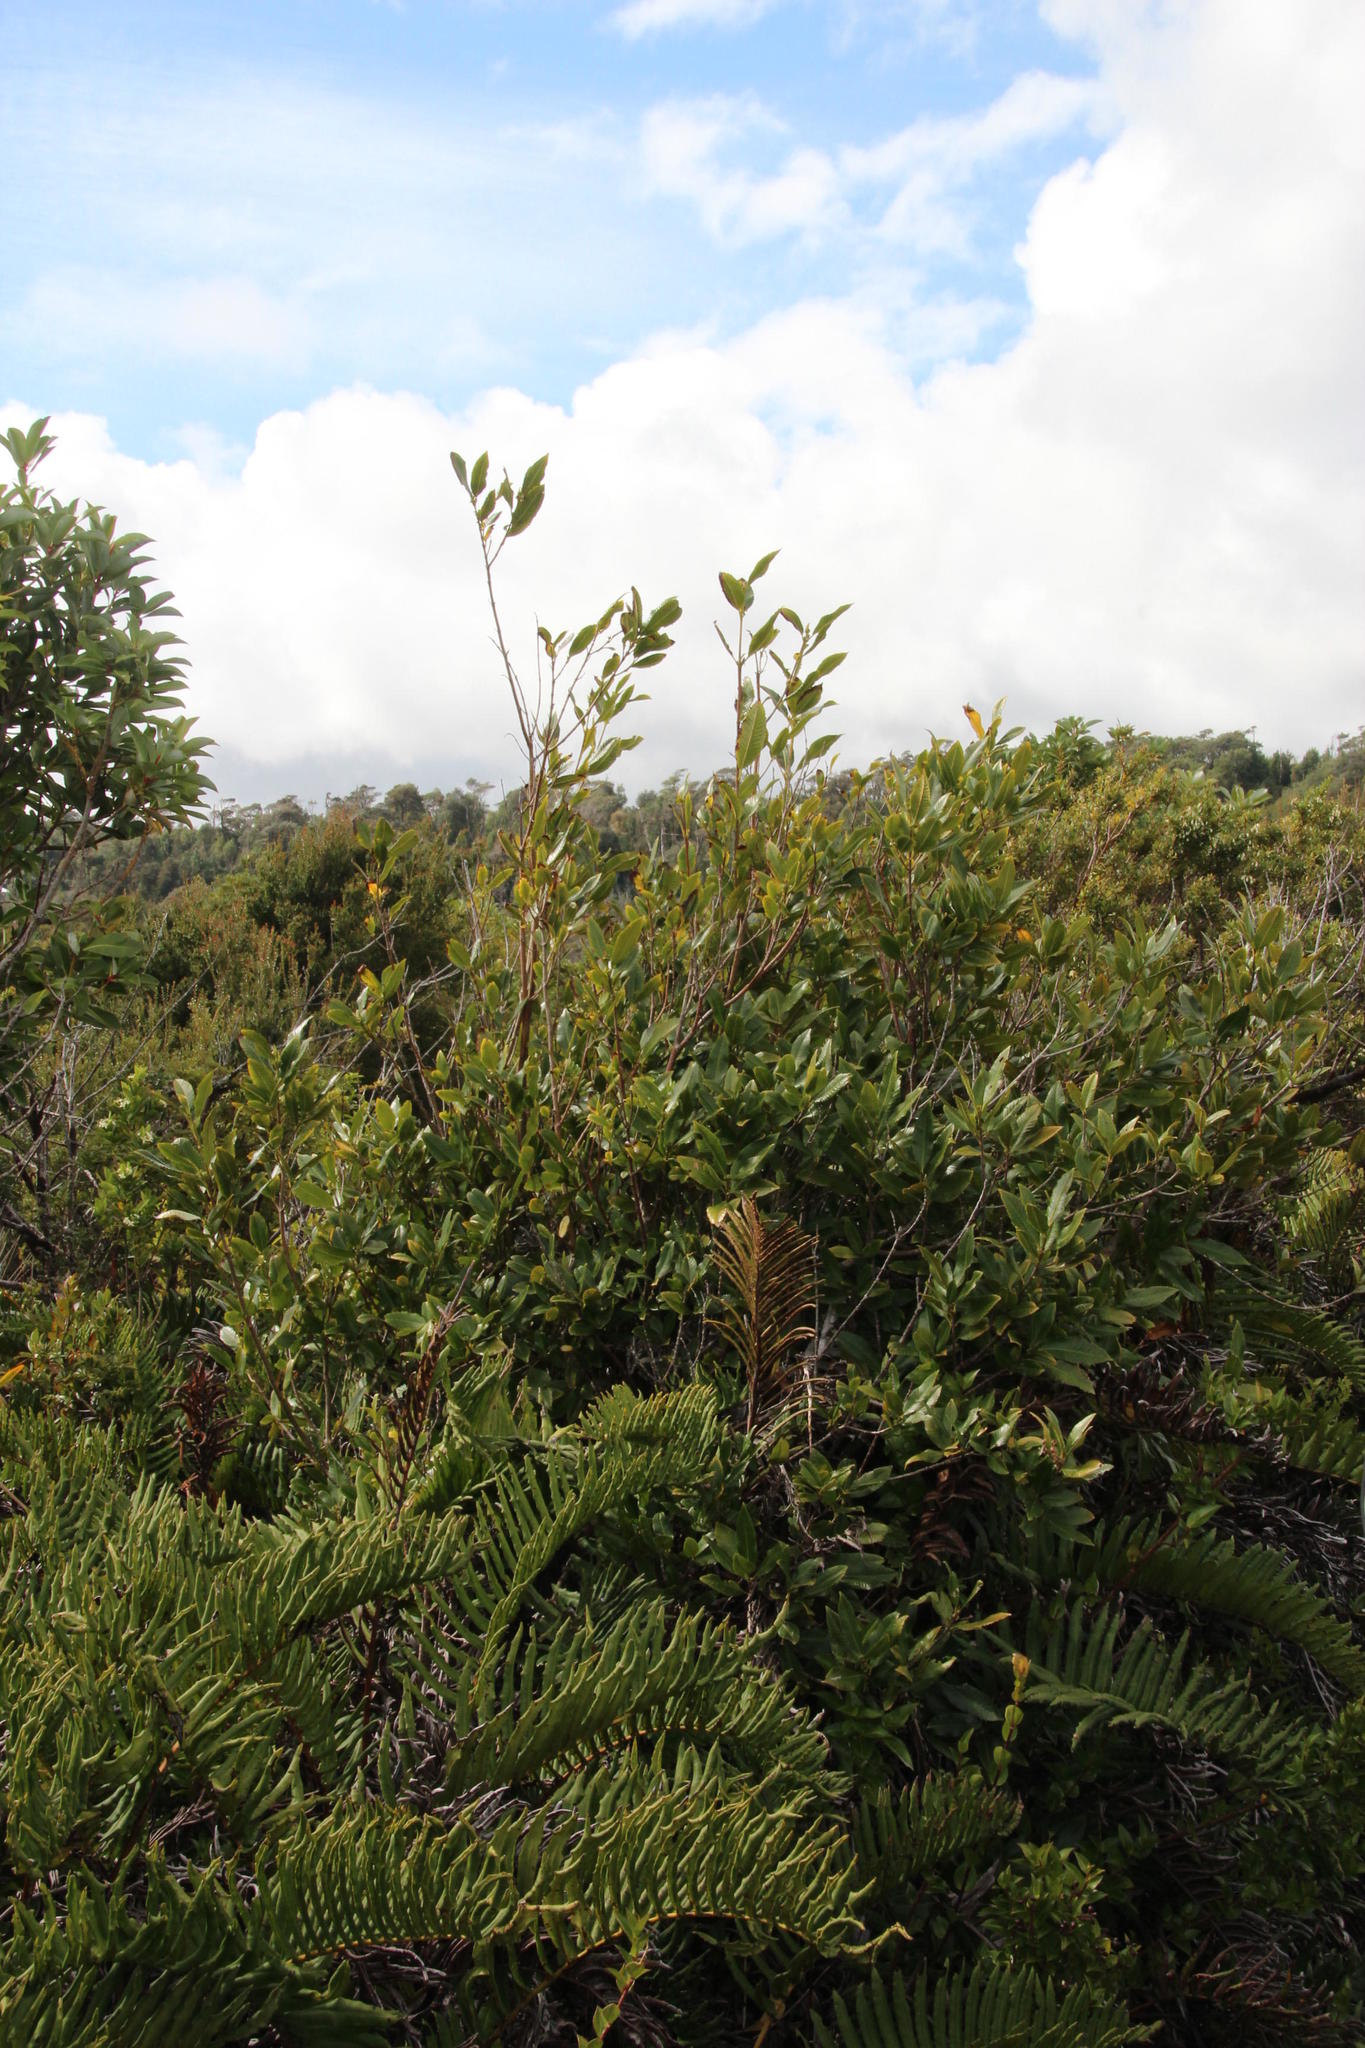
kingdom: Plantae
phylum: Tracheophyta
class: Magnoliopsida
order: Oxalidales
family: Cunoniaceae
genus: Caldcluvia
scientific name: Caldcluvia paniculata
